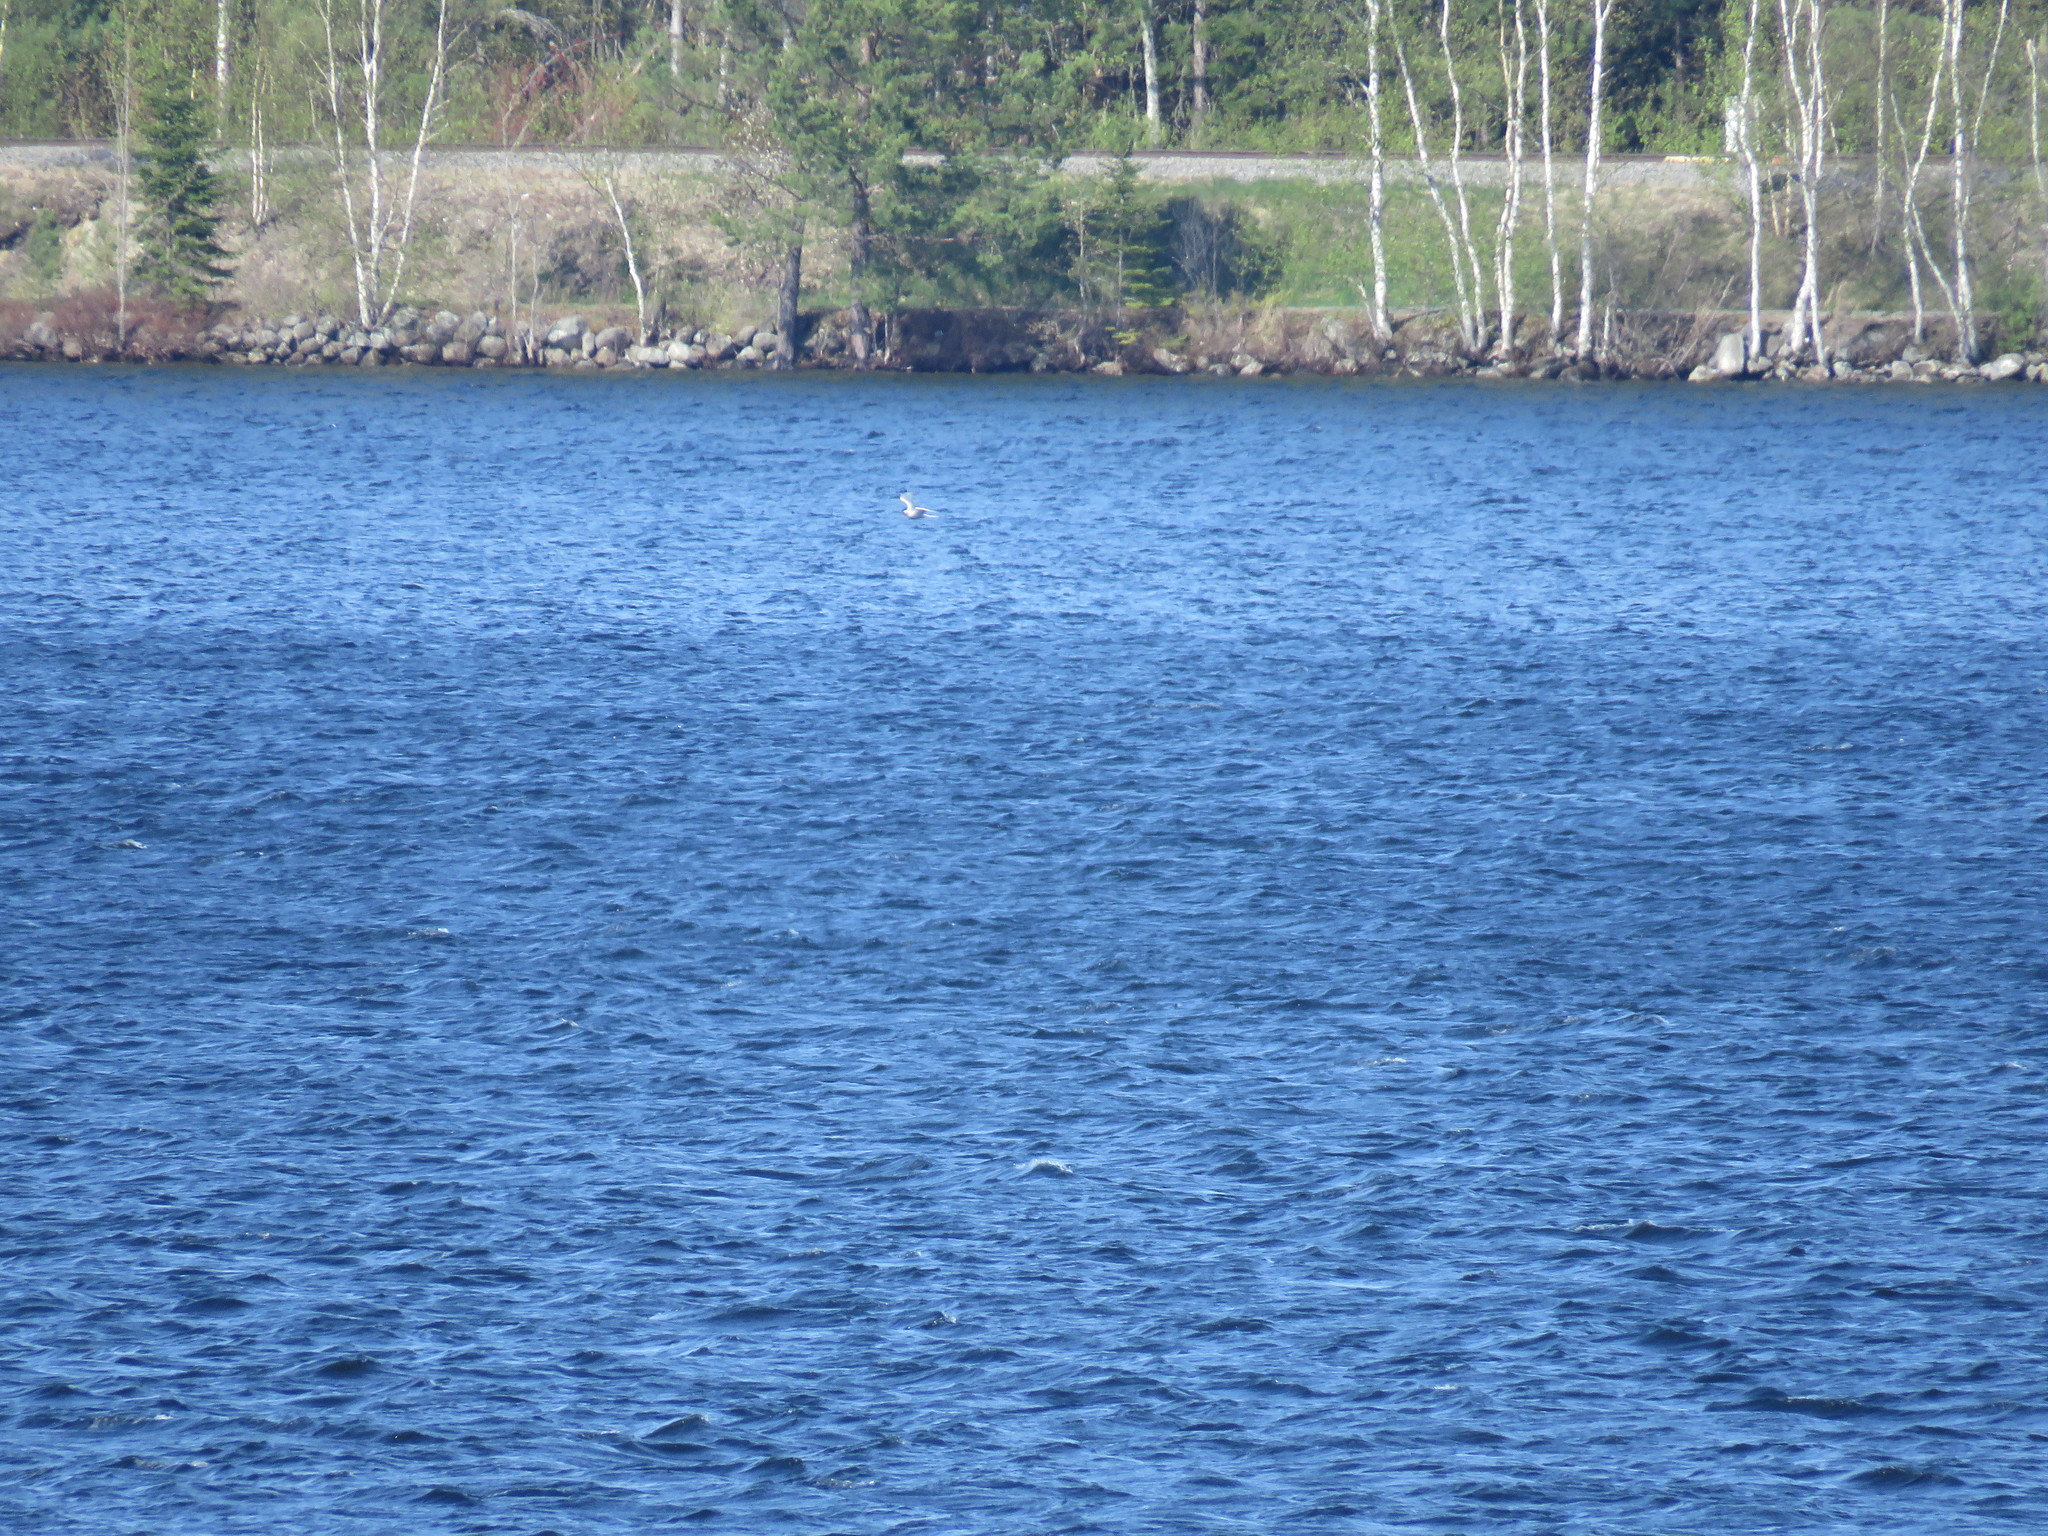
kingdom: Animalia
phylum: Chordata
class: Aves
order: Charadriiformes
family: Laridae
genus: Sterna
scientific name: Sterna hirundo
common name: Common tern
